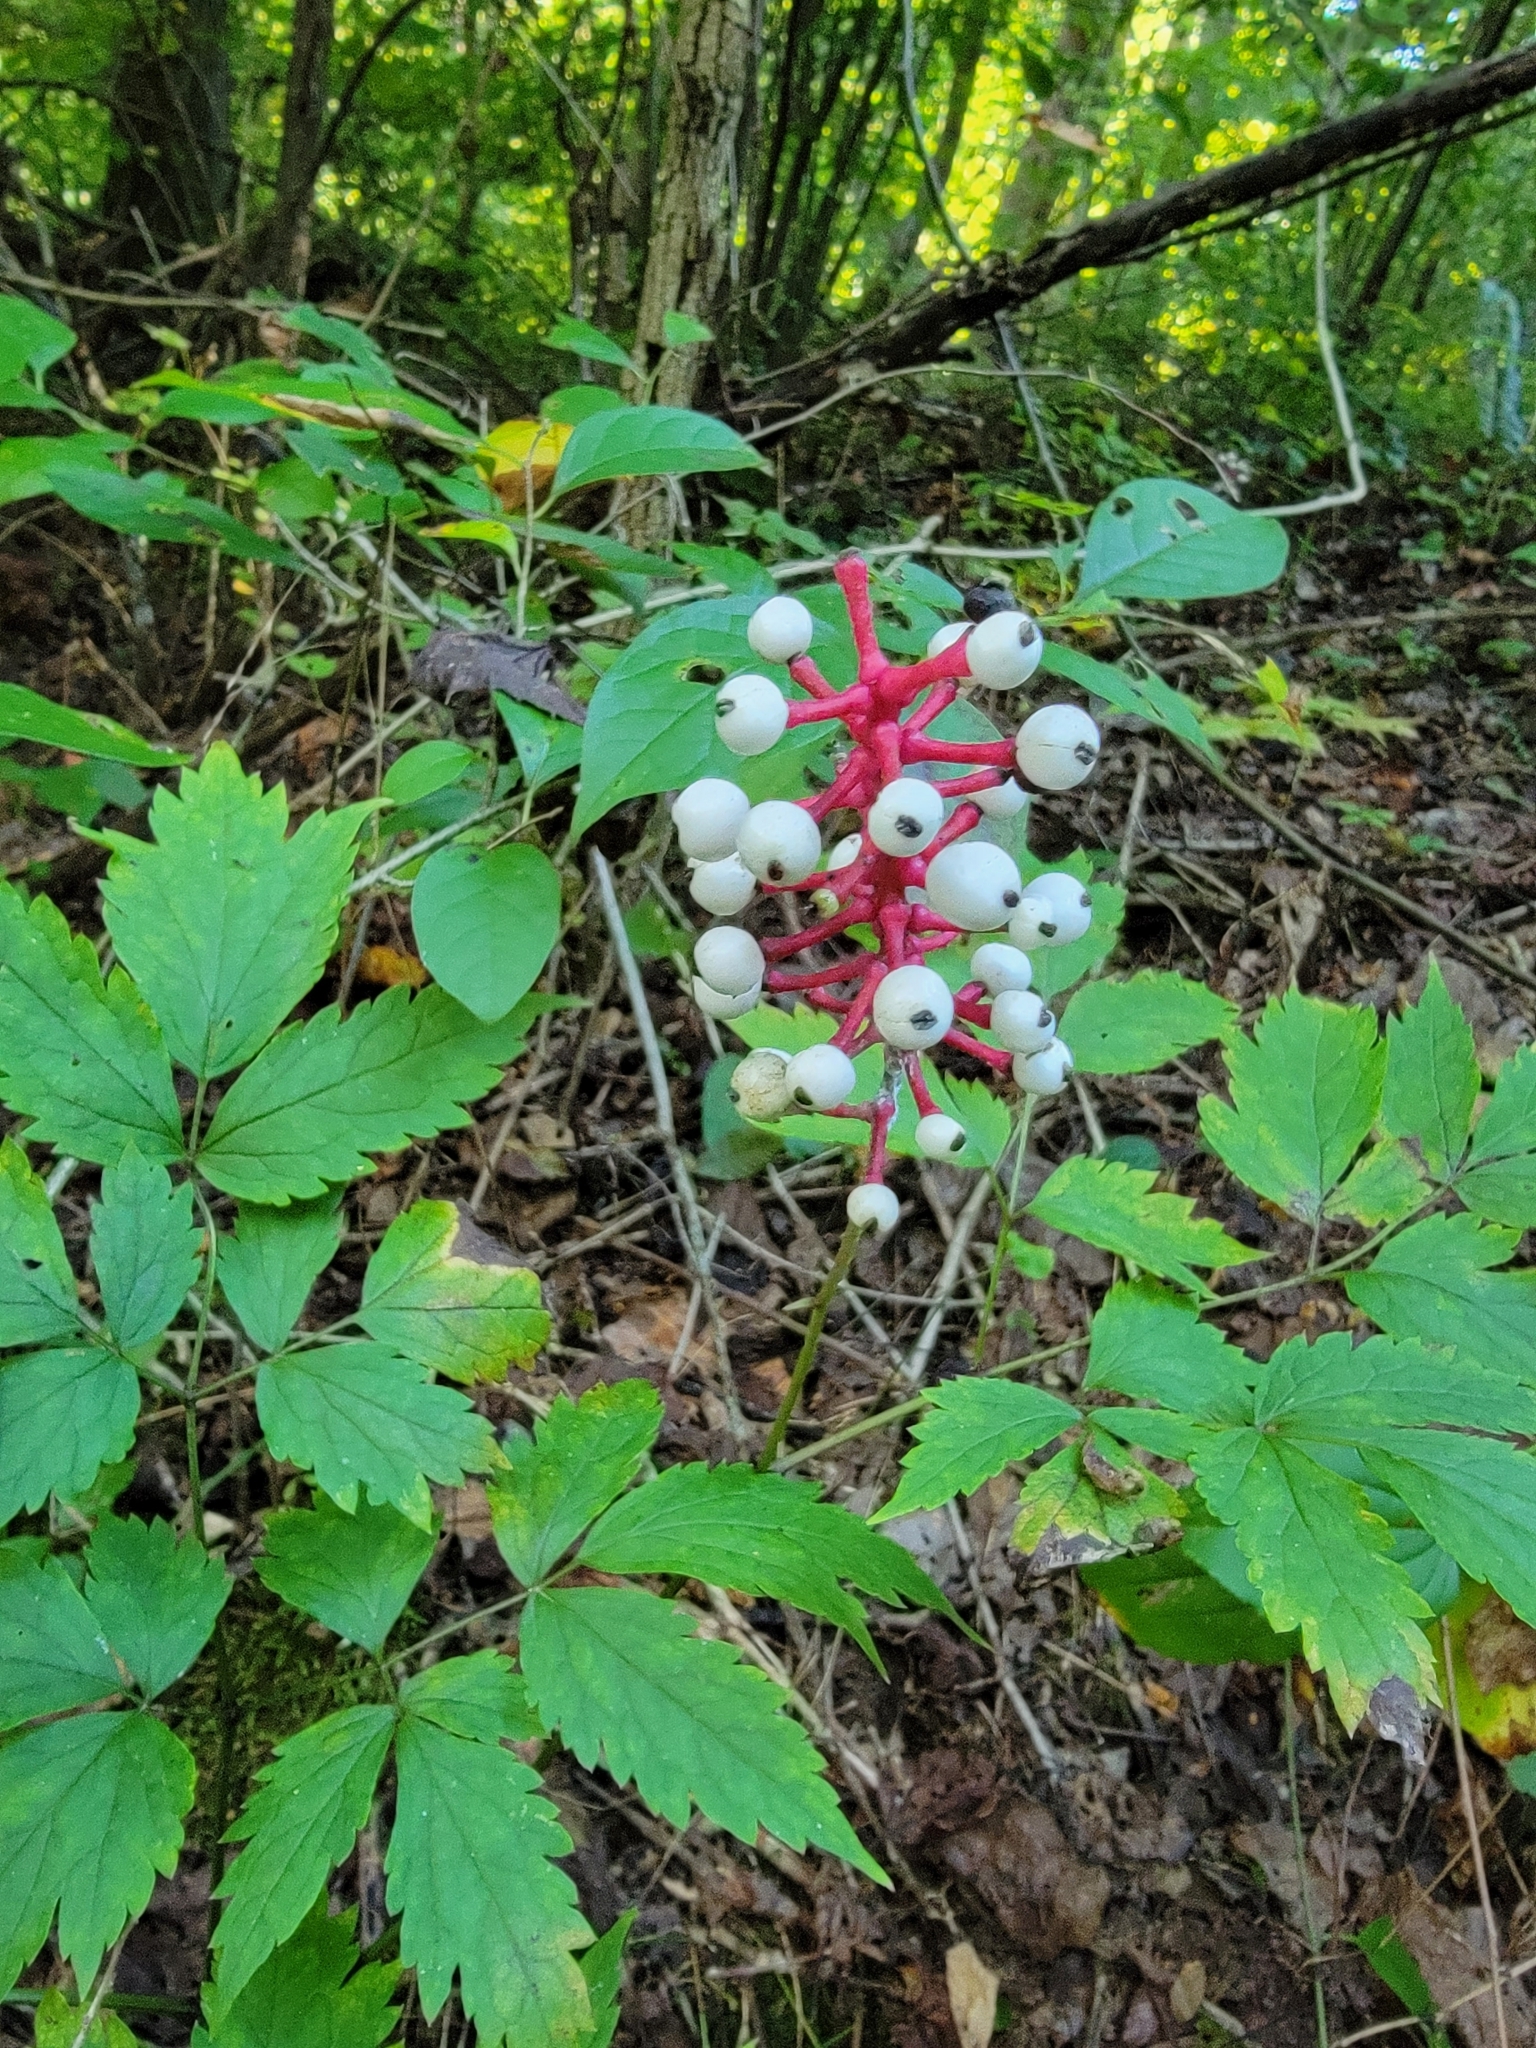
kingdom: Plantae
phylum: Tracheophyta
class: Magnoliopsida
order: Ranunculales
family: Ranunculaceae
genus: Actaea
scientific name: Actaea pachypoda
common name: Doll's-eyes
